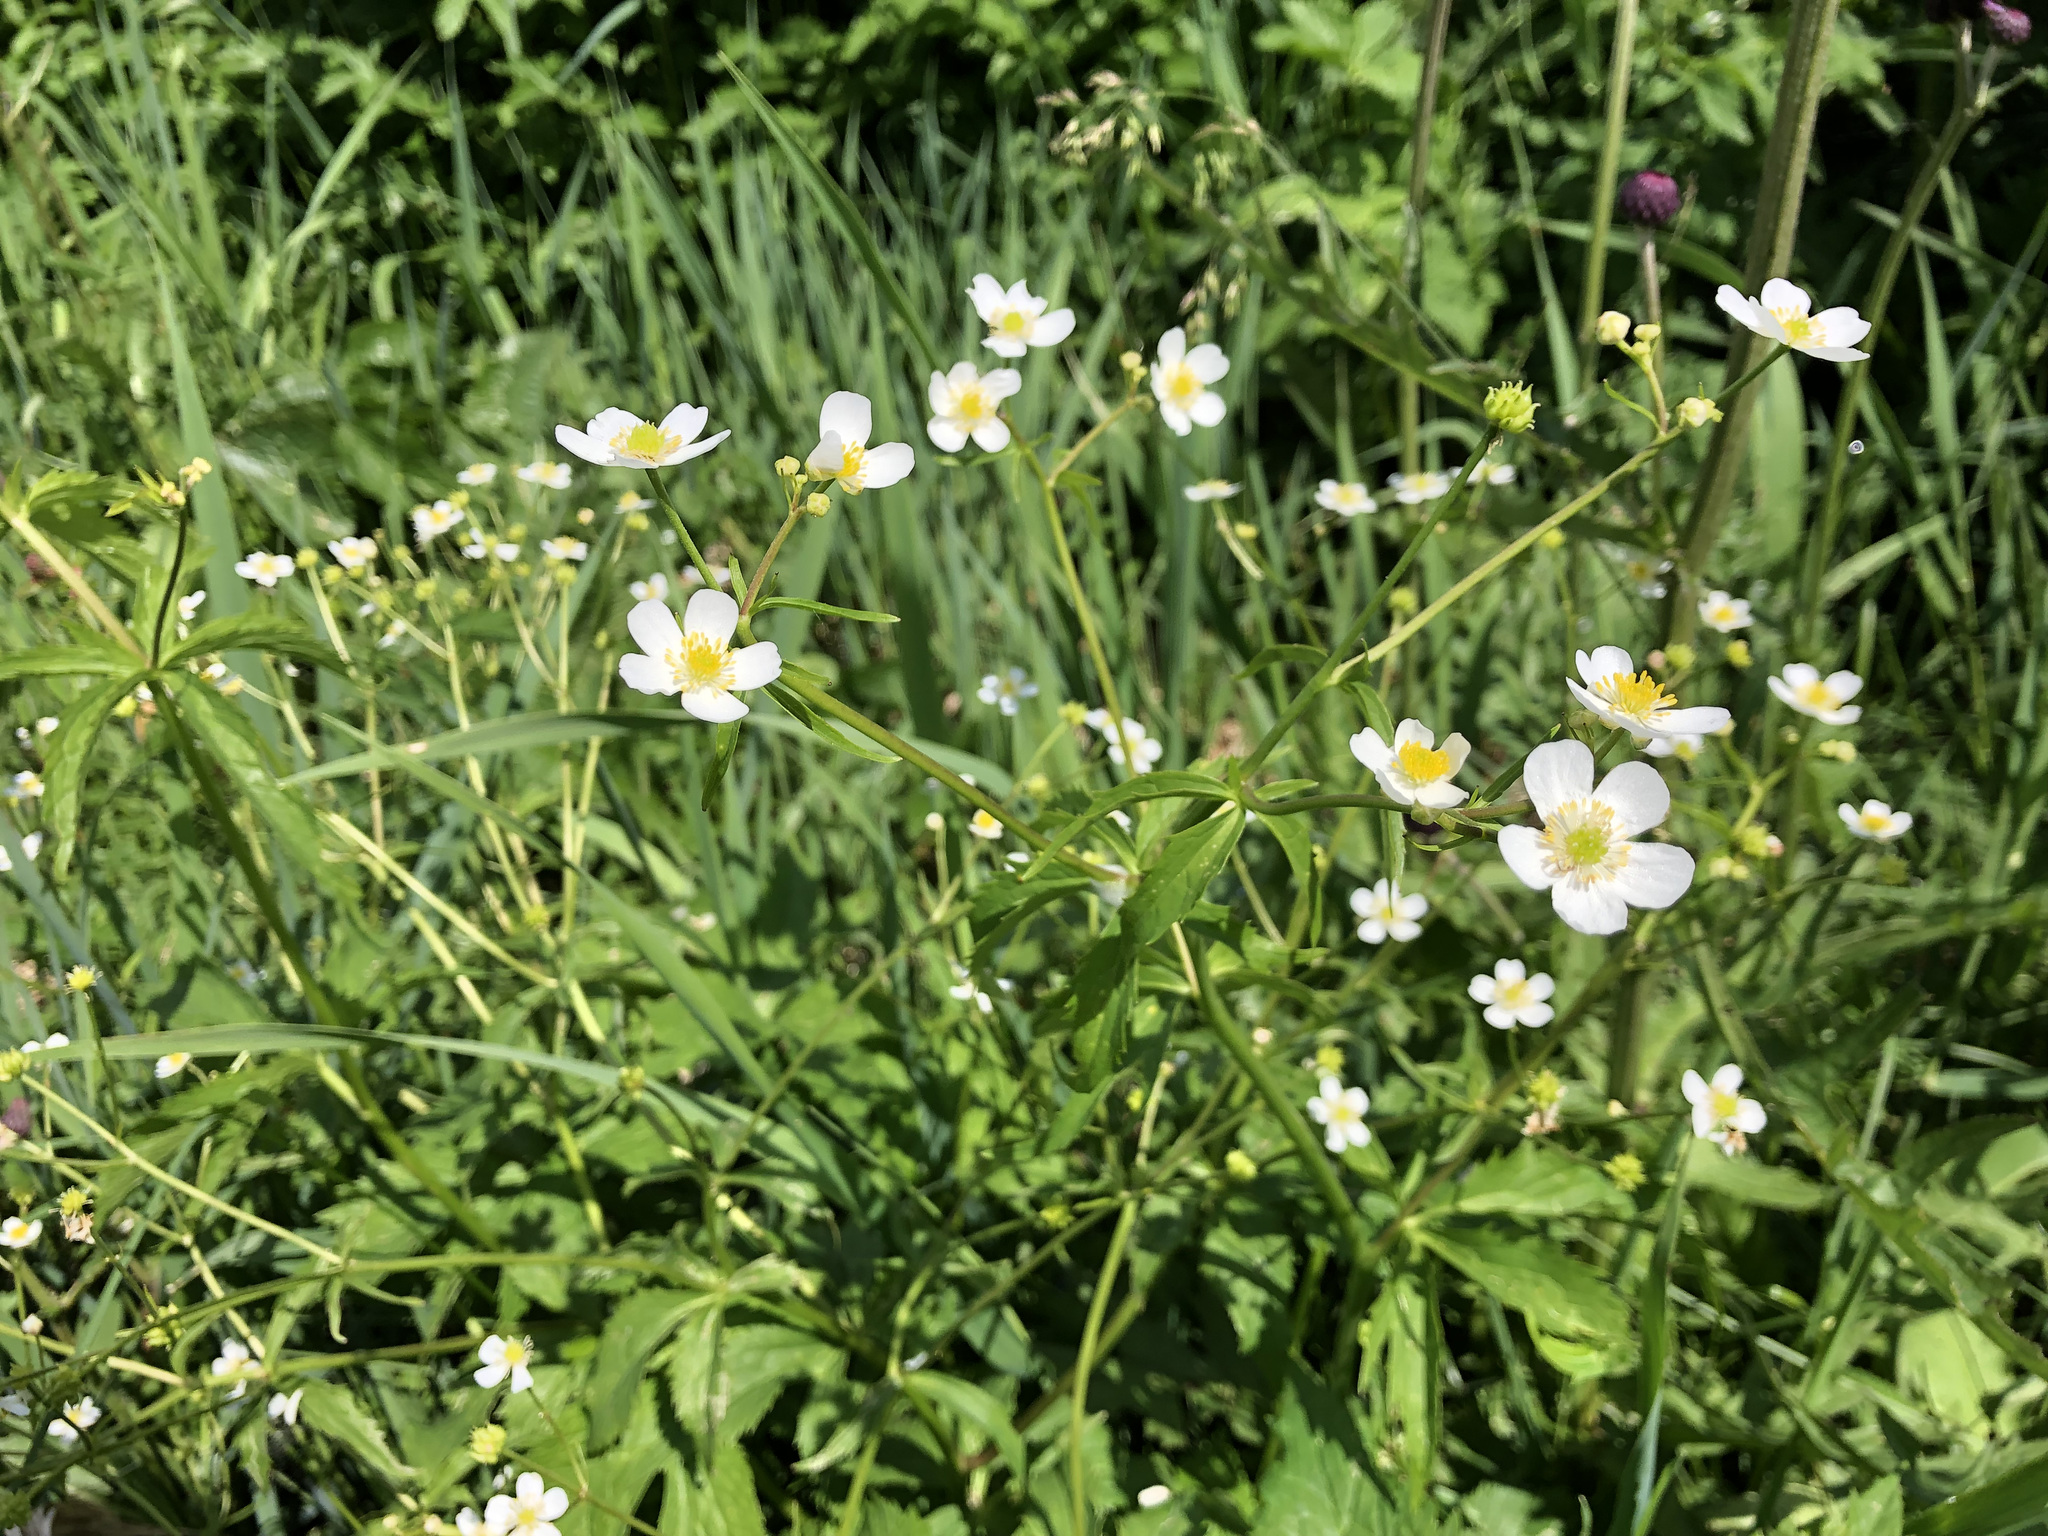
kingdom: Plantae
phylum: Tracheophyta
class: Magnoliopsida
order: Ranunculales
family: Ranunculaceae
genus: Ranunculus
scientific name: Ranunculus aconitifolius
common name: Aconite-leaved buttercup
